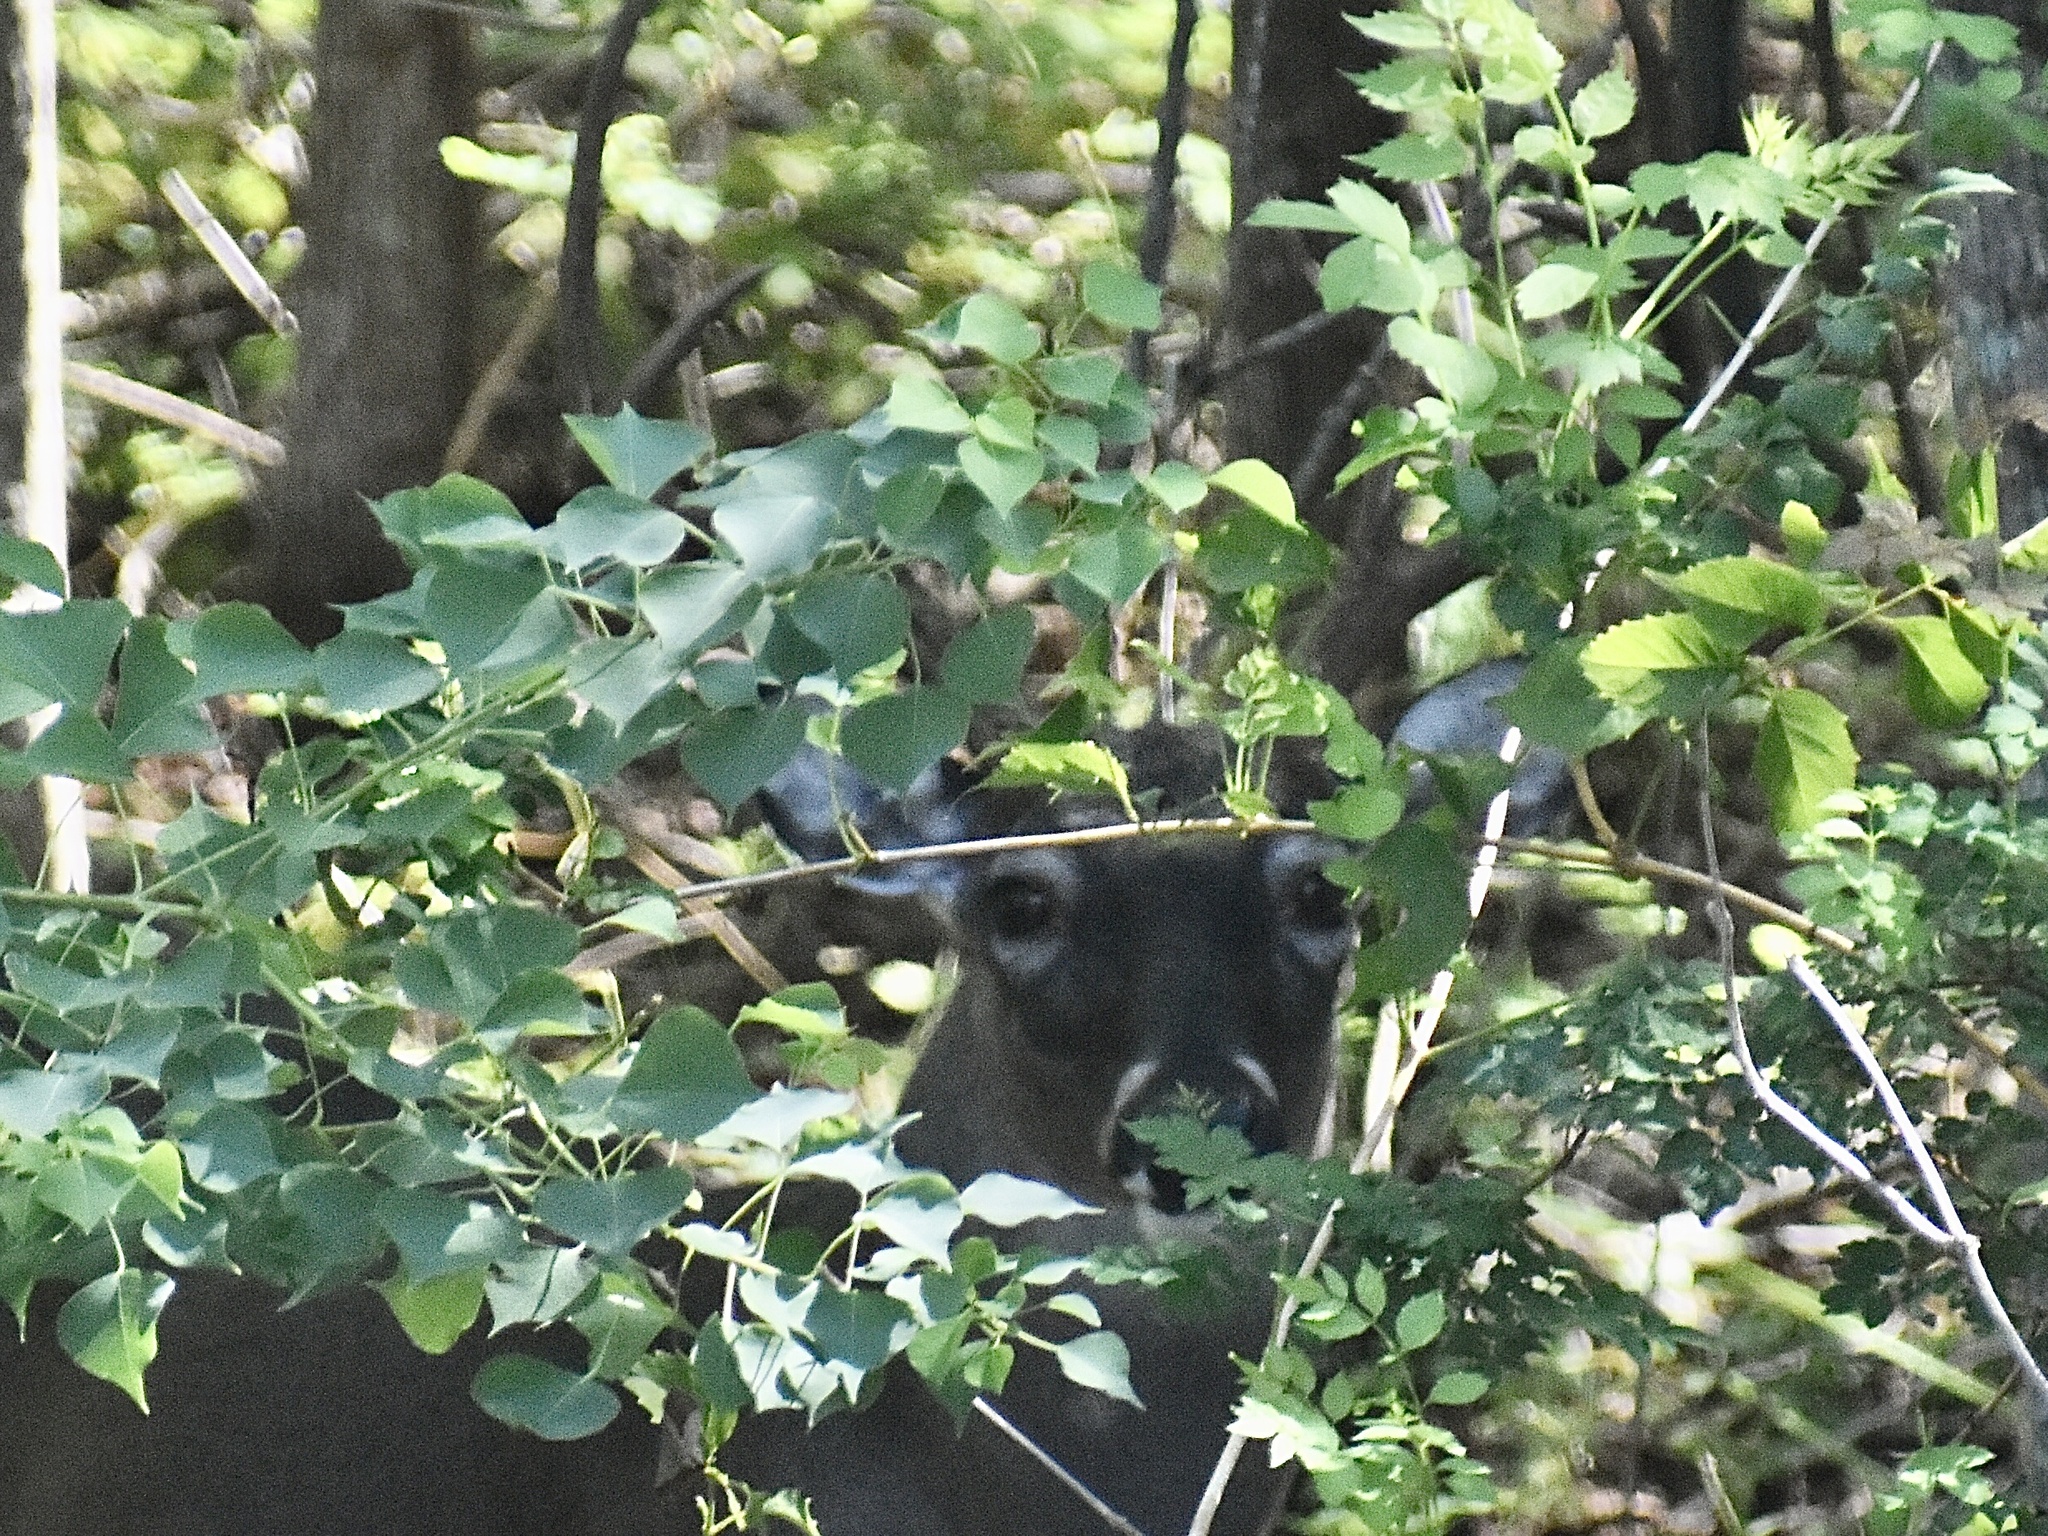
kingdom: Animalia
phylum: Chordata
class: Mammalia
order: Artiodactyla
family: Cervidae
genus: Odocoileus
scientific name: Odocoileus virginianus
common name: White-tailed deer
